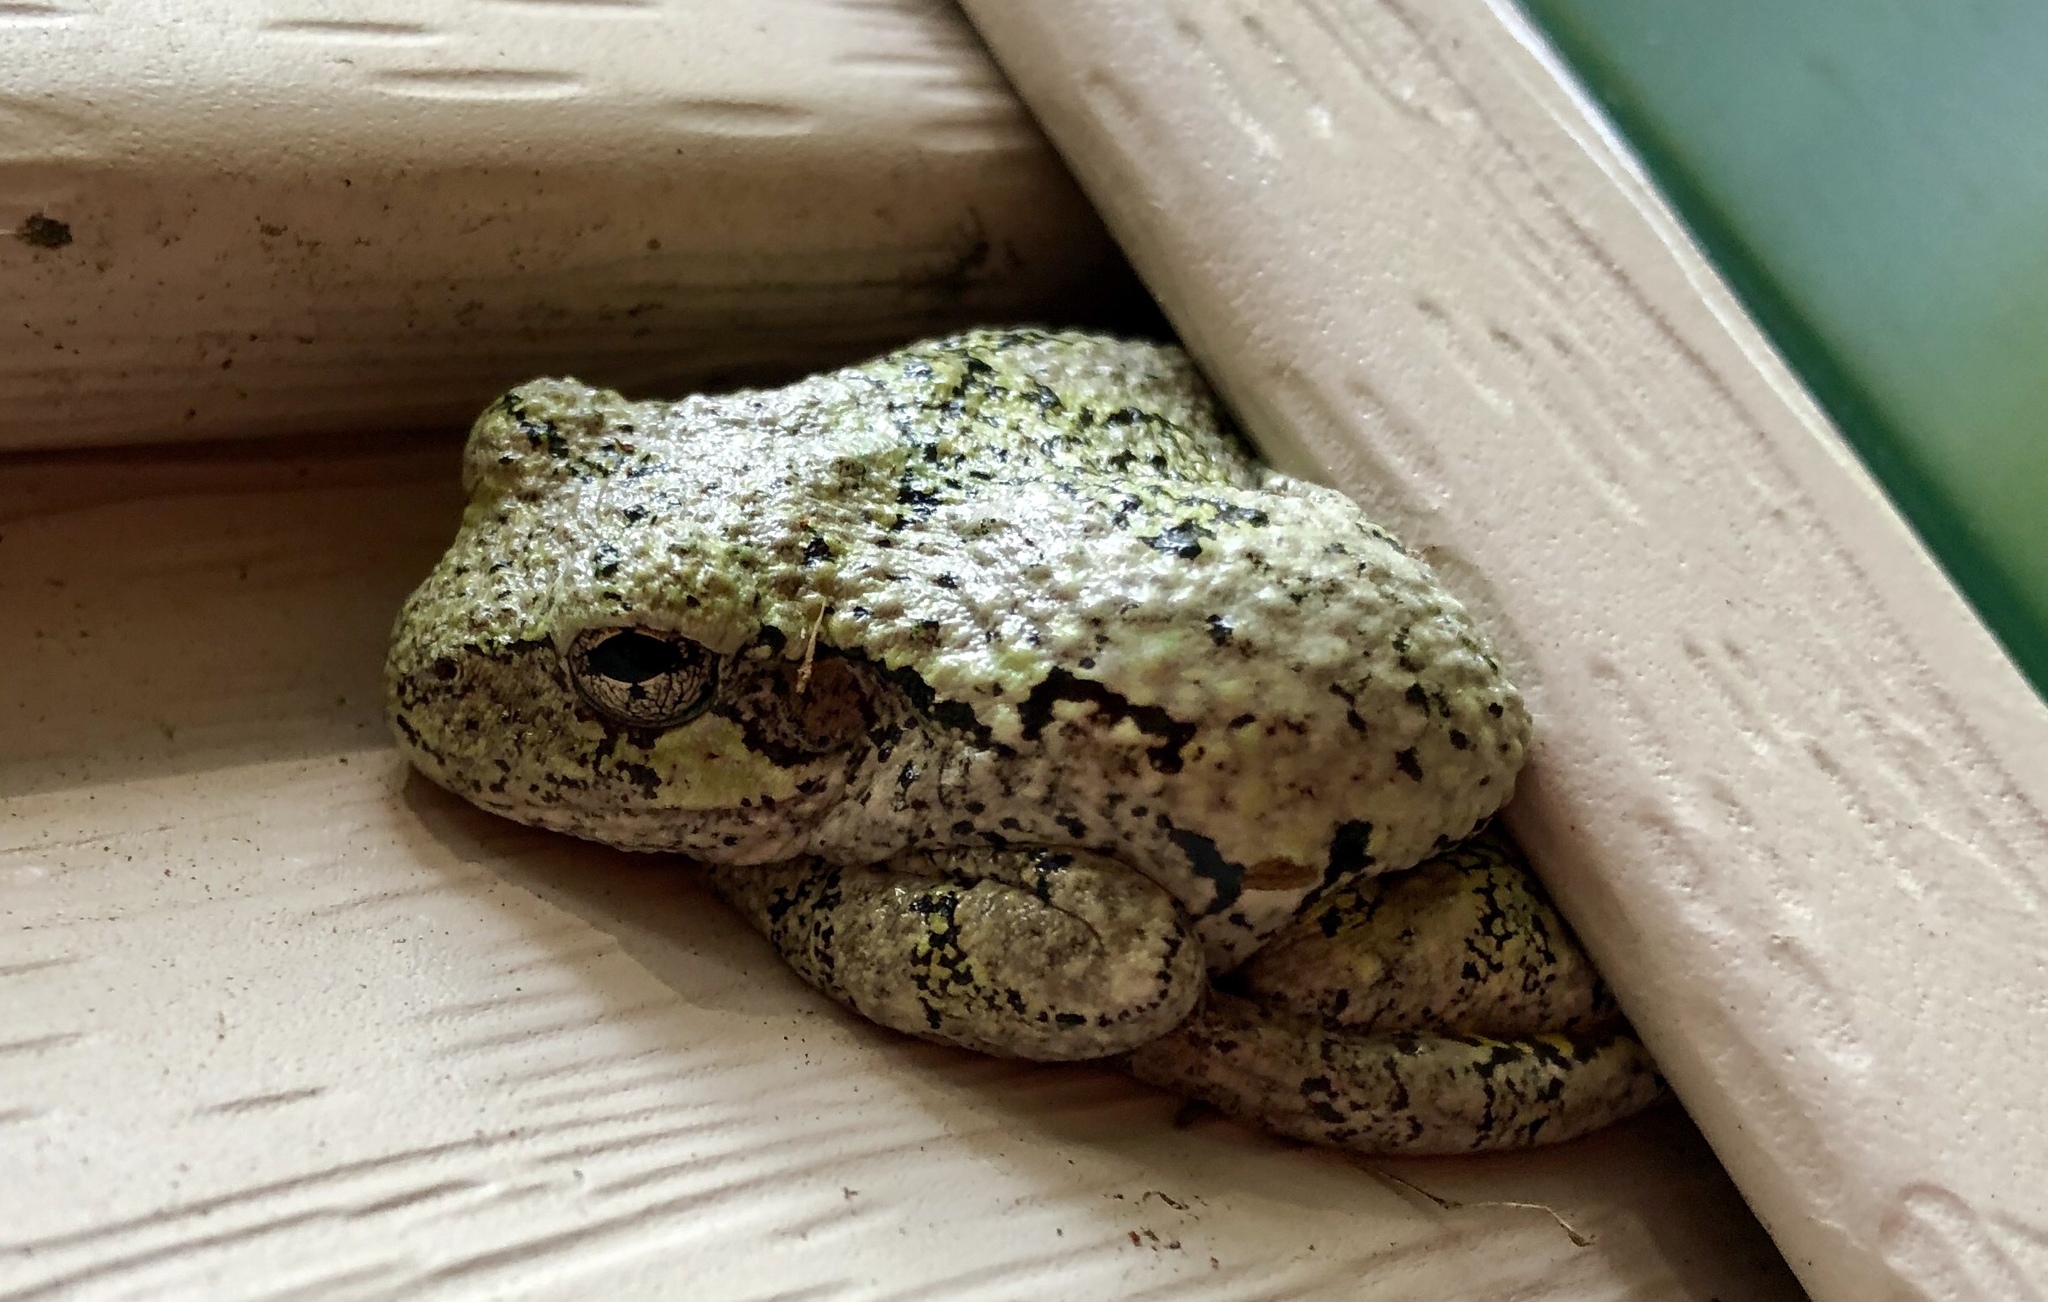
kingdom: Animalia
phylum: Chordata
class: Amphibia
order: Anura
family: Hylidae
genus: Dryophytes
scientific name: Dryophytes versicolor
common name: Gray treefrog
